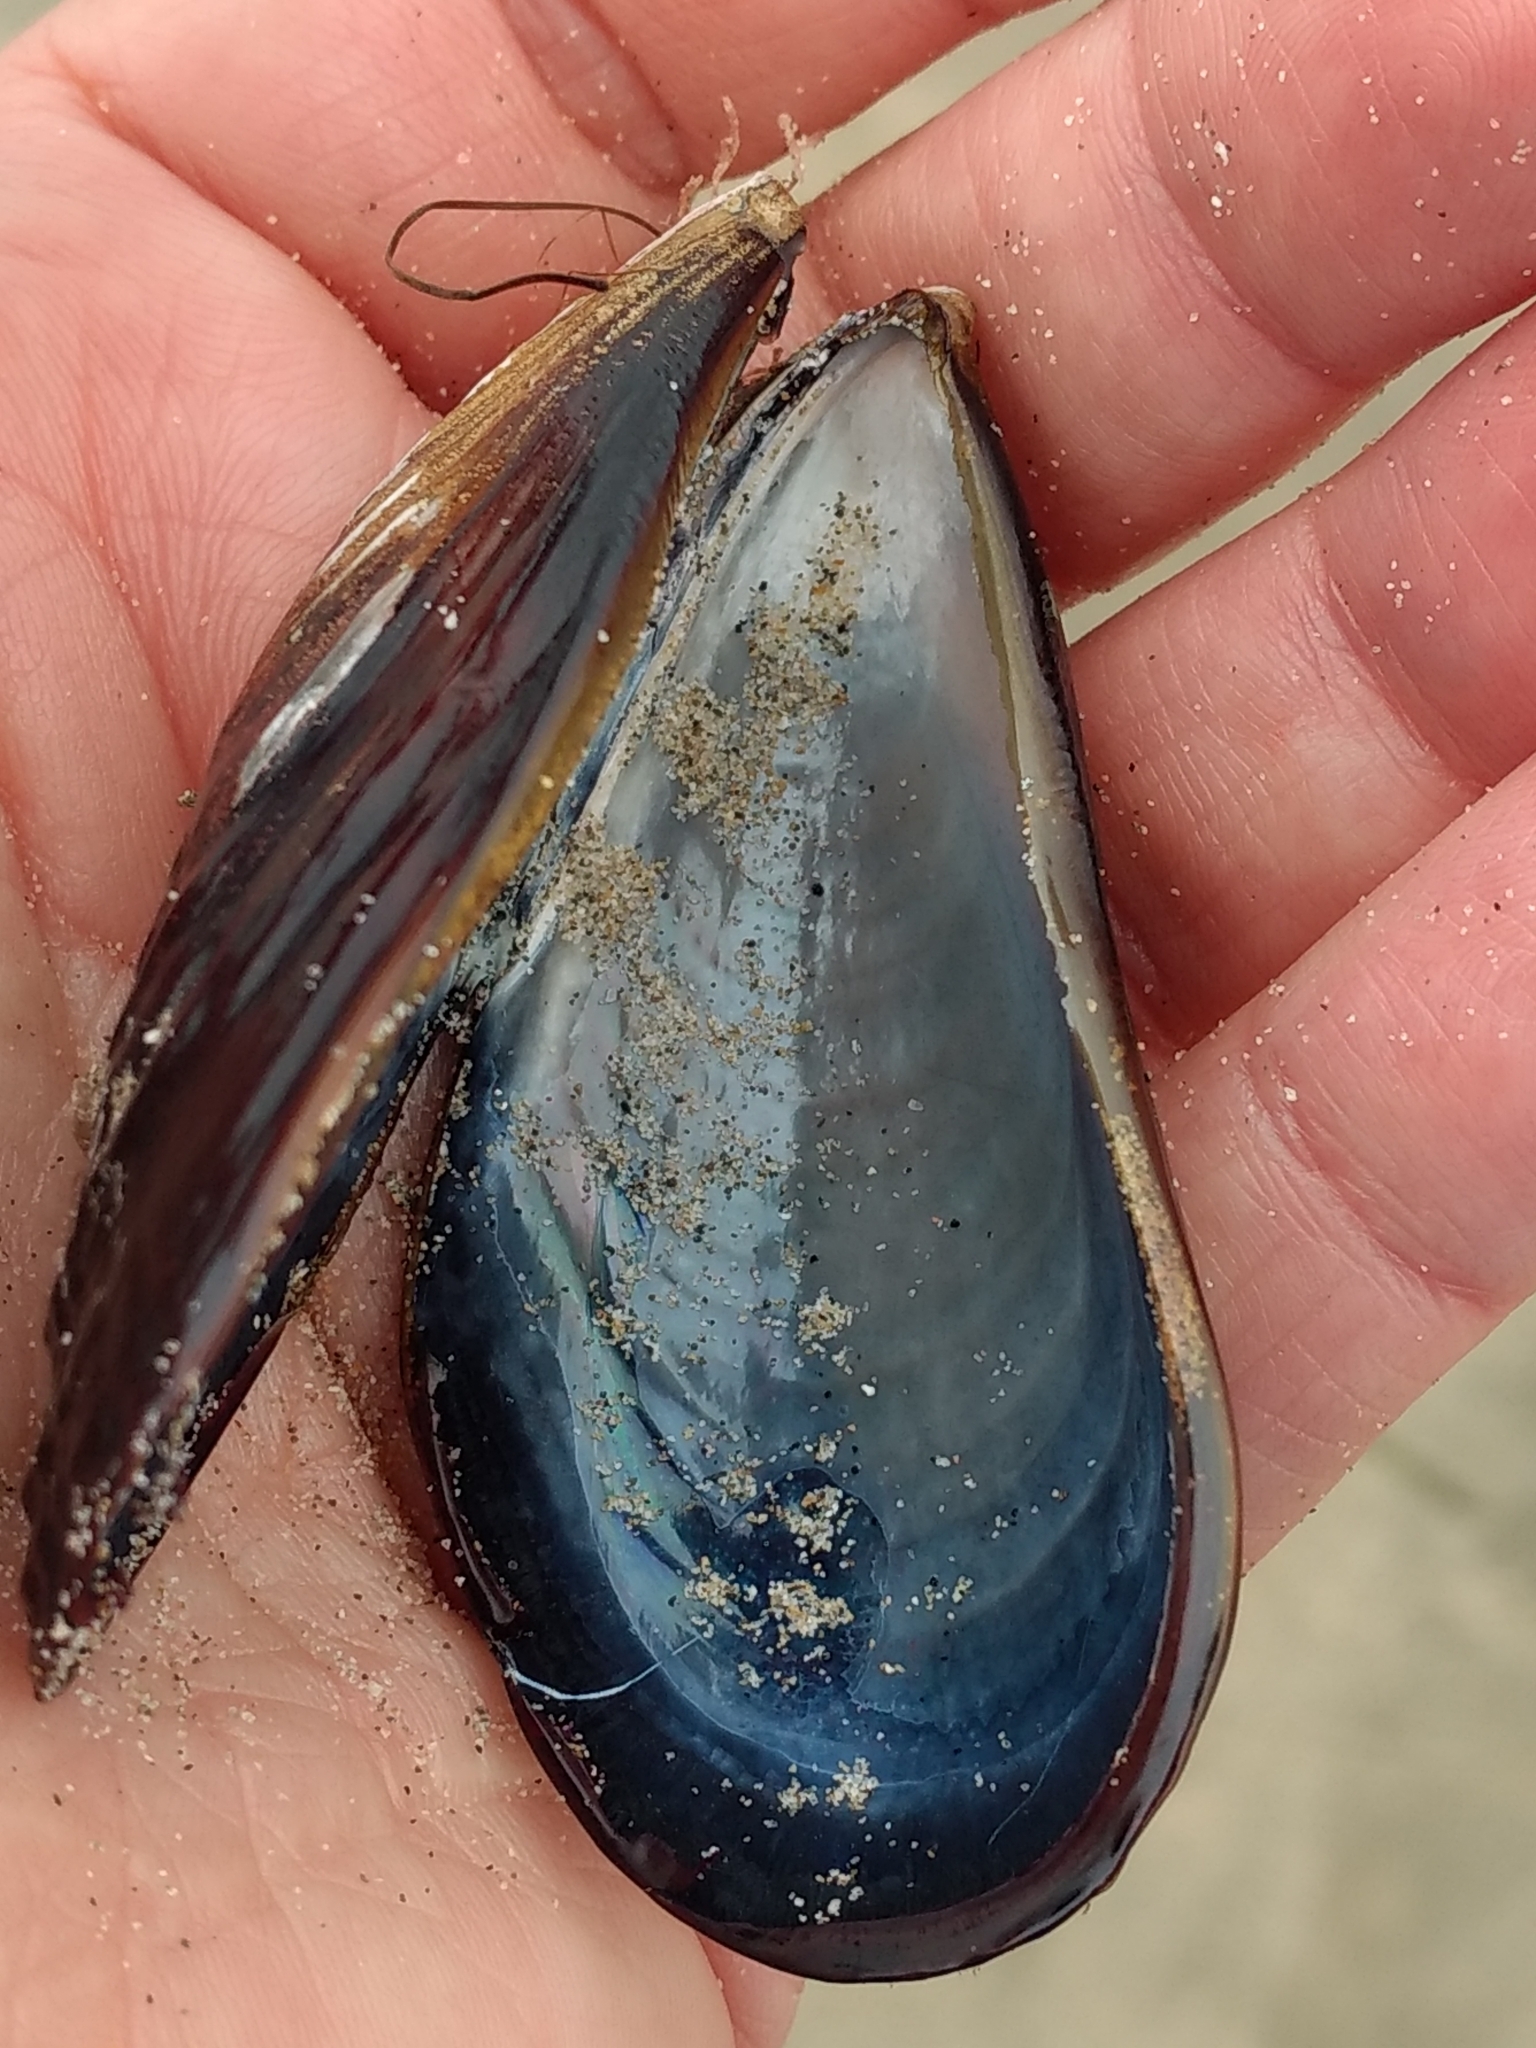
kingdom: Animalia
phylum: Mollusca
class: Bivalvia
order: Mytilida
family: Mytilidae
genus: Mytilus
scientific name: Mytilus californianus
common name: California mussel
